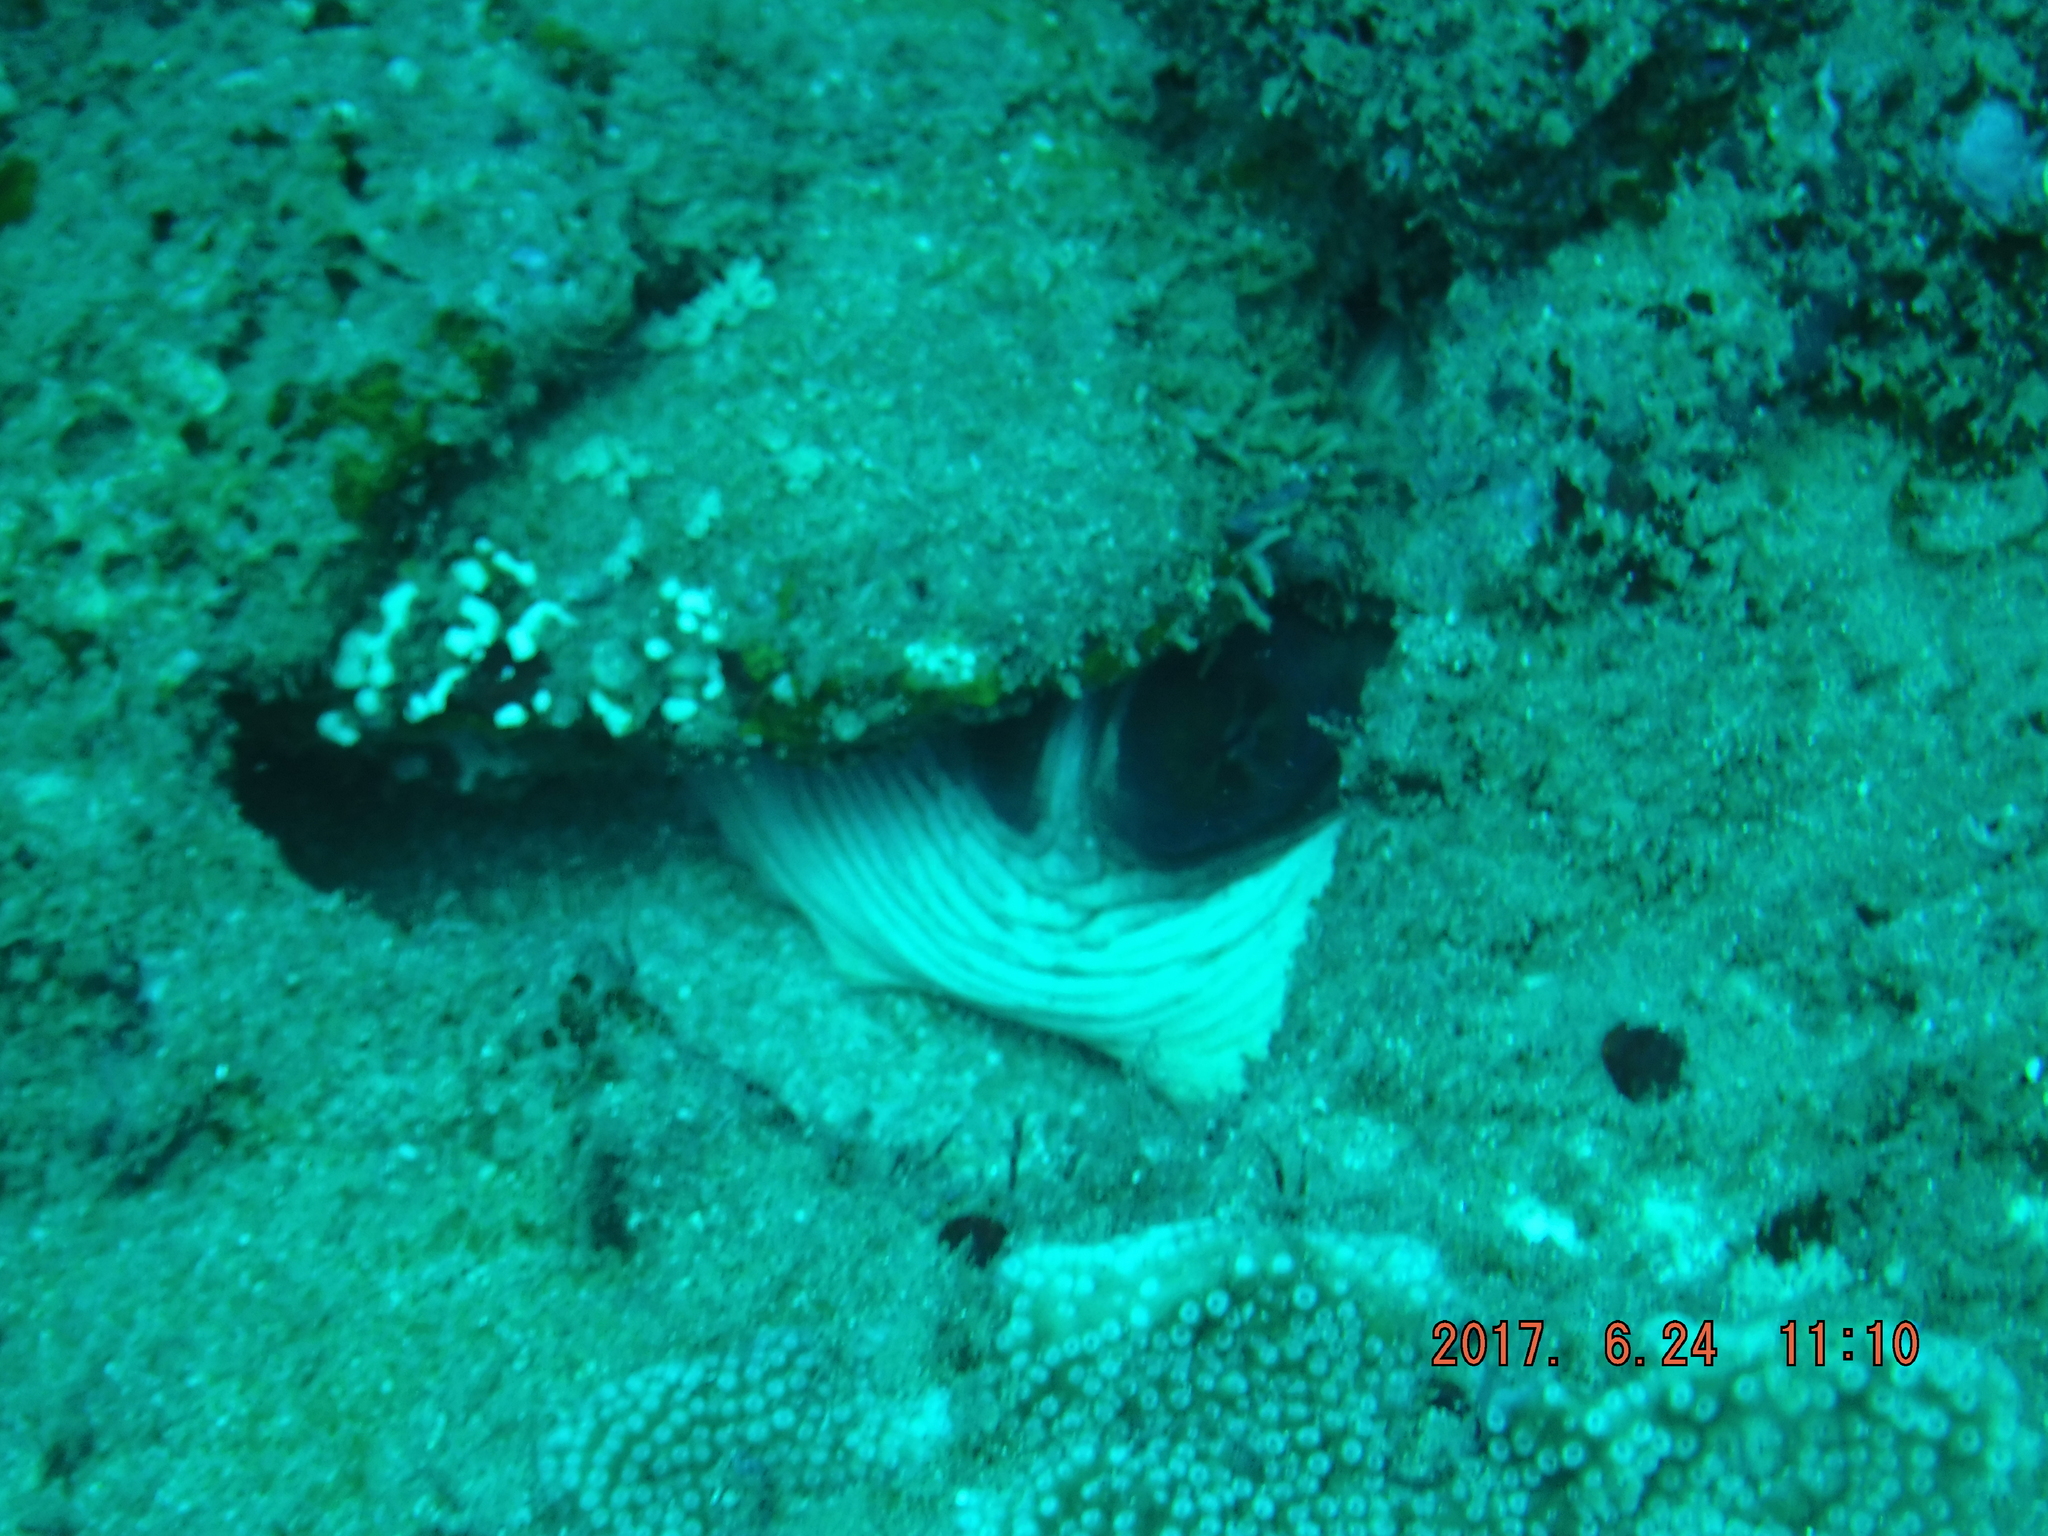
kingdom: Animalia
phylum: Mollusca
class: Cephalopoda
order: Octopoda
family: Octopodidae
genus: Octopus
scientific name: Octopus cyanea
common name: Cyane's octopus
